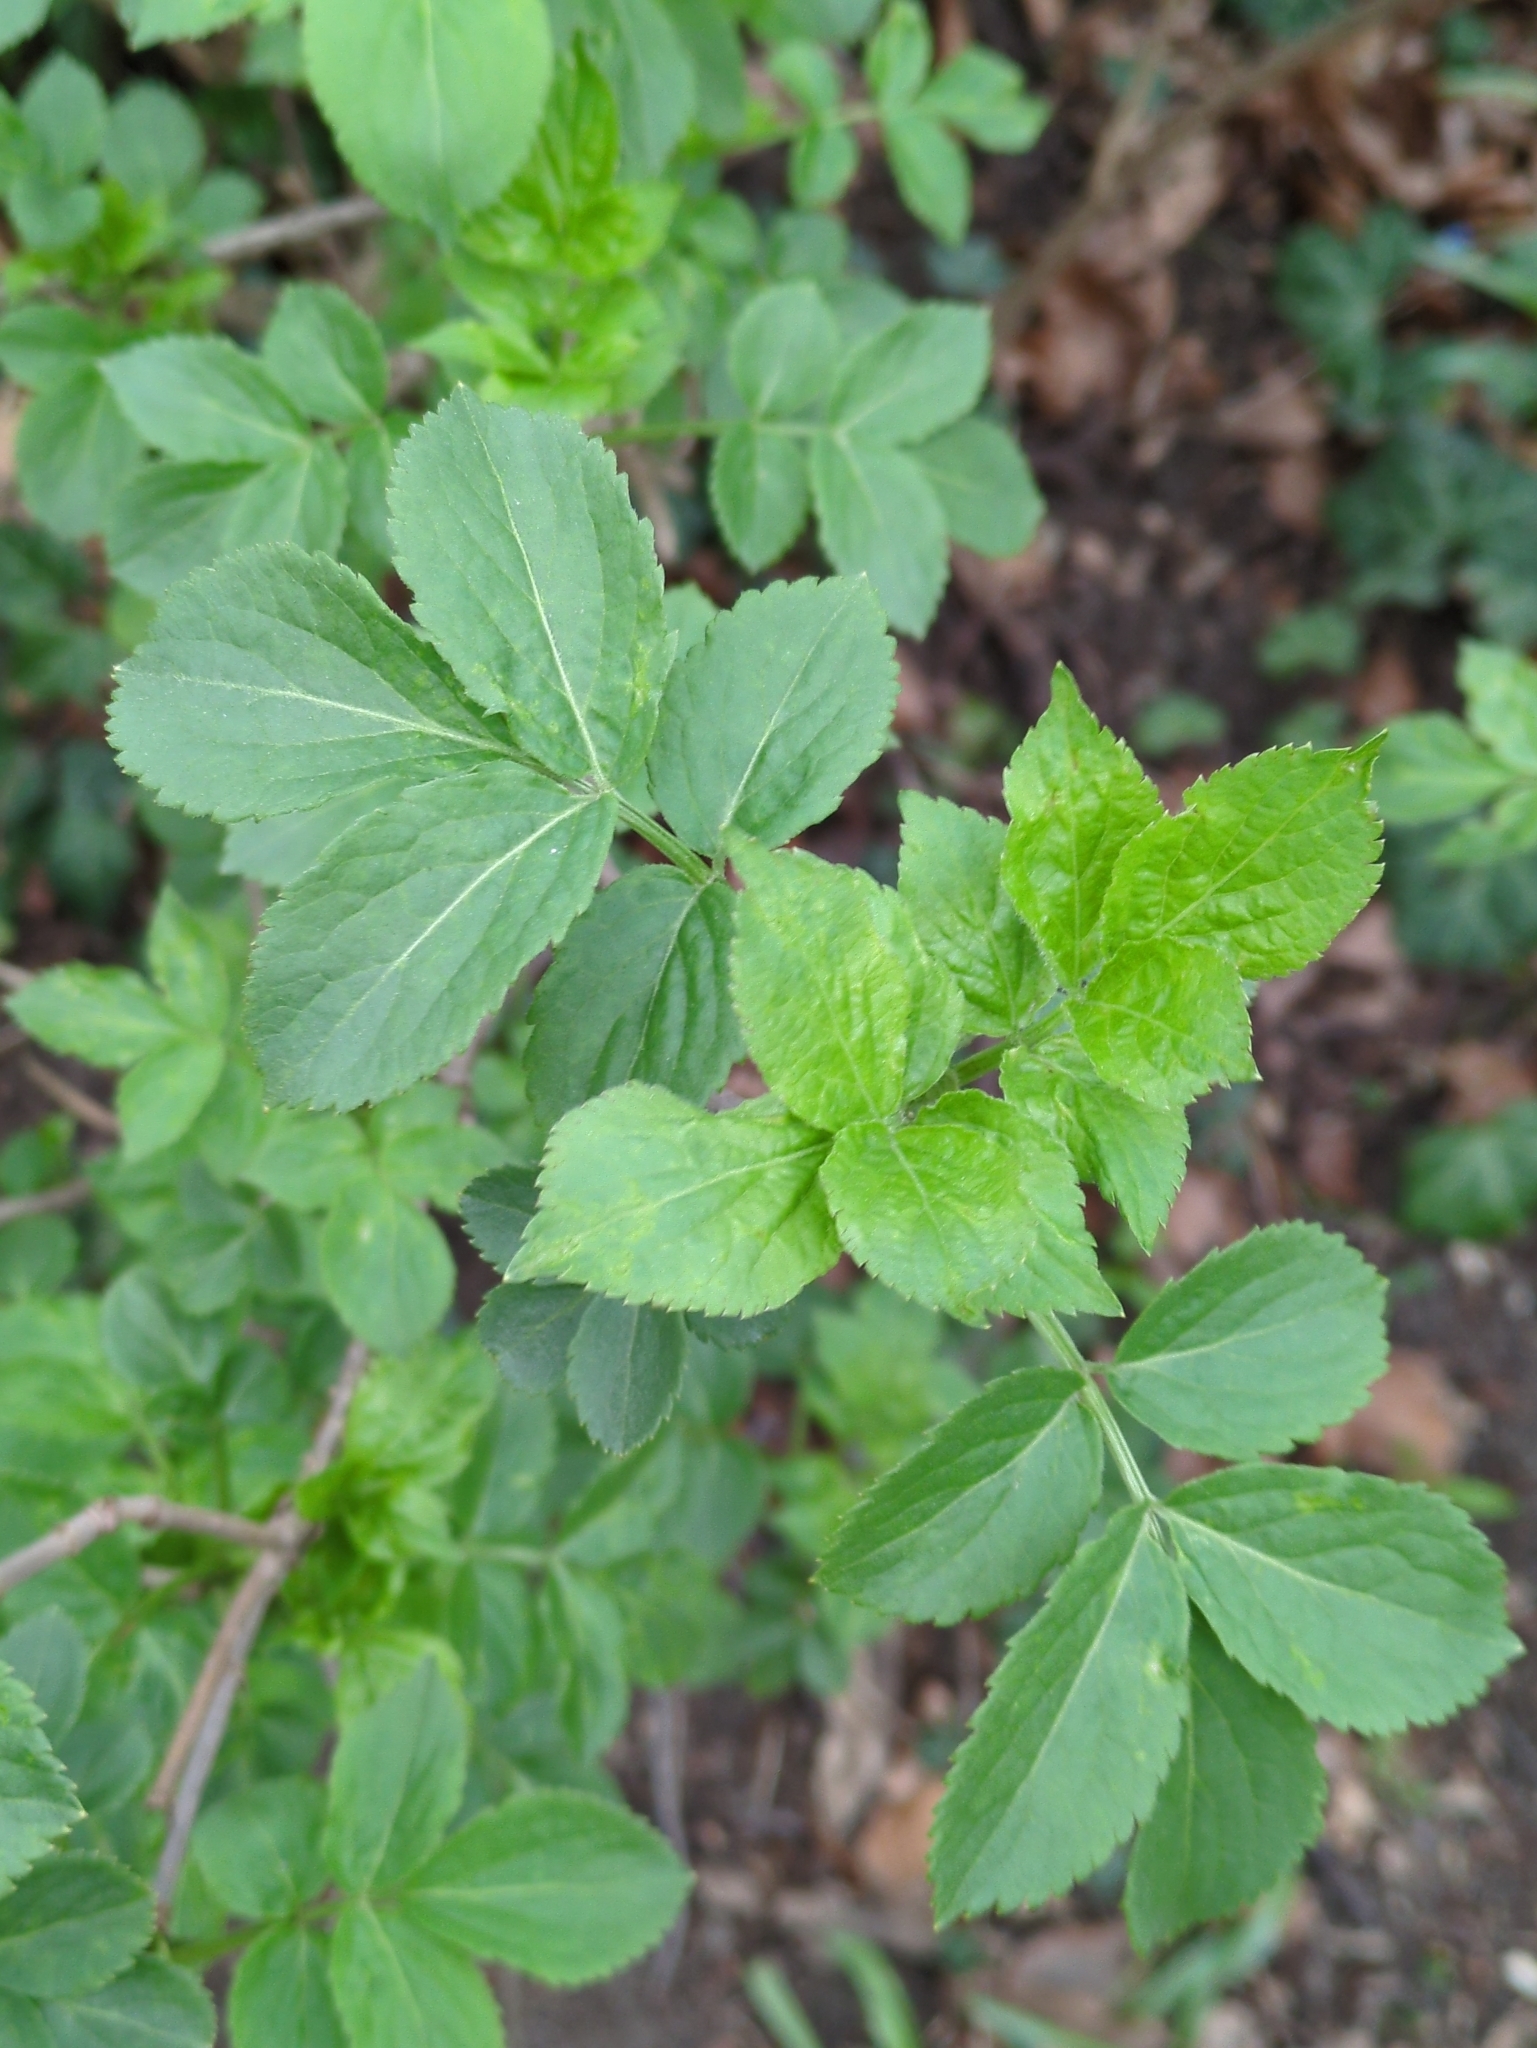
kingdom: Plantae
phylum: Tracheophyta
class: Magnoliopsida
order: Dipsacales
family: Viburnaceae
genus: Sambucus
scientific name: Sambucus nigra
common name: Elder
